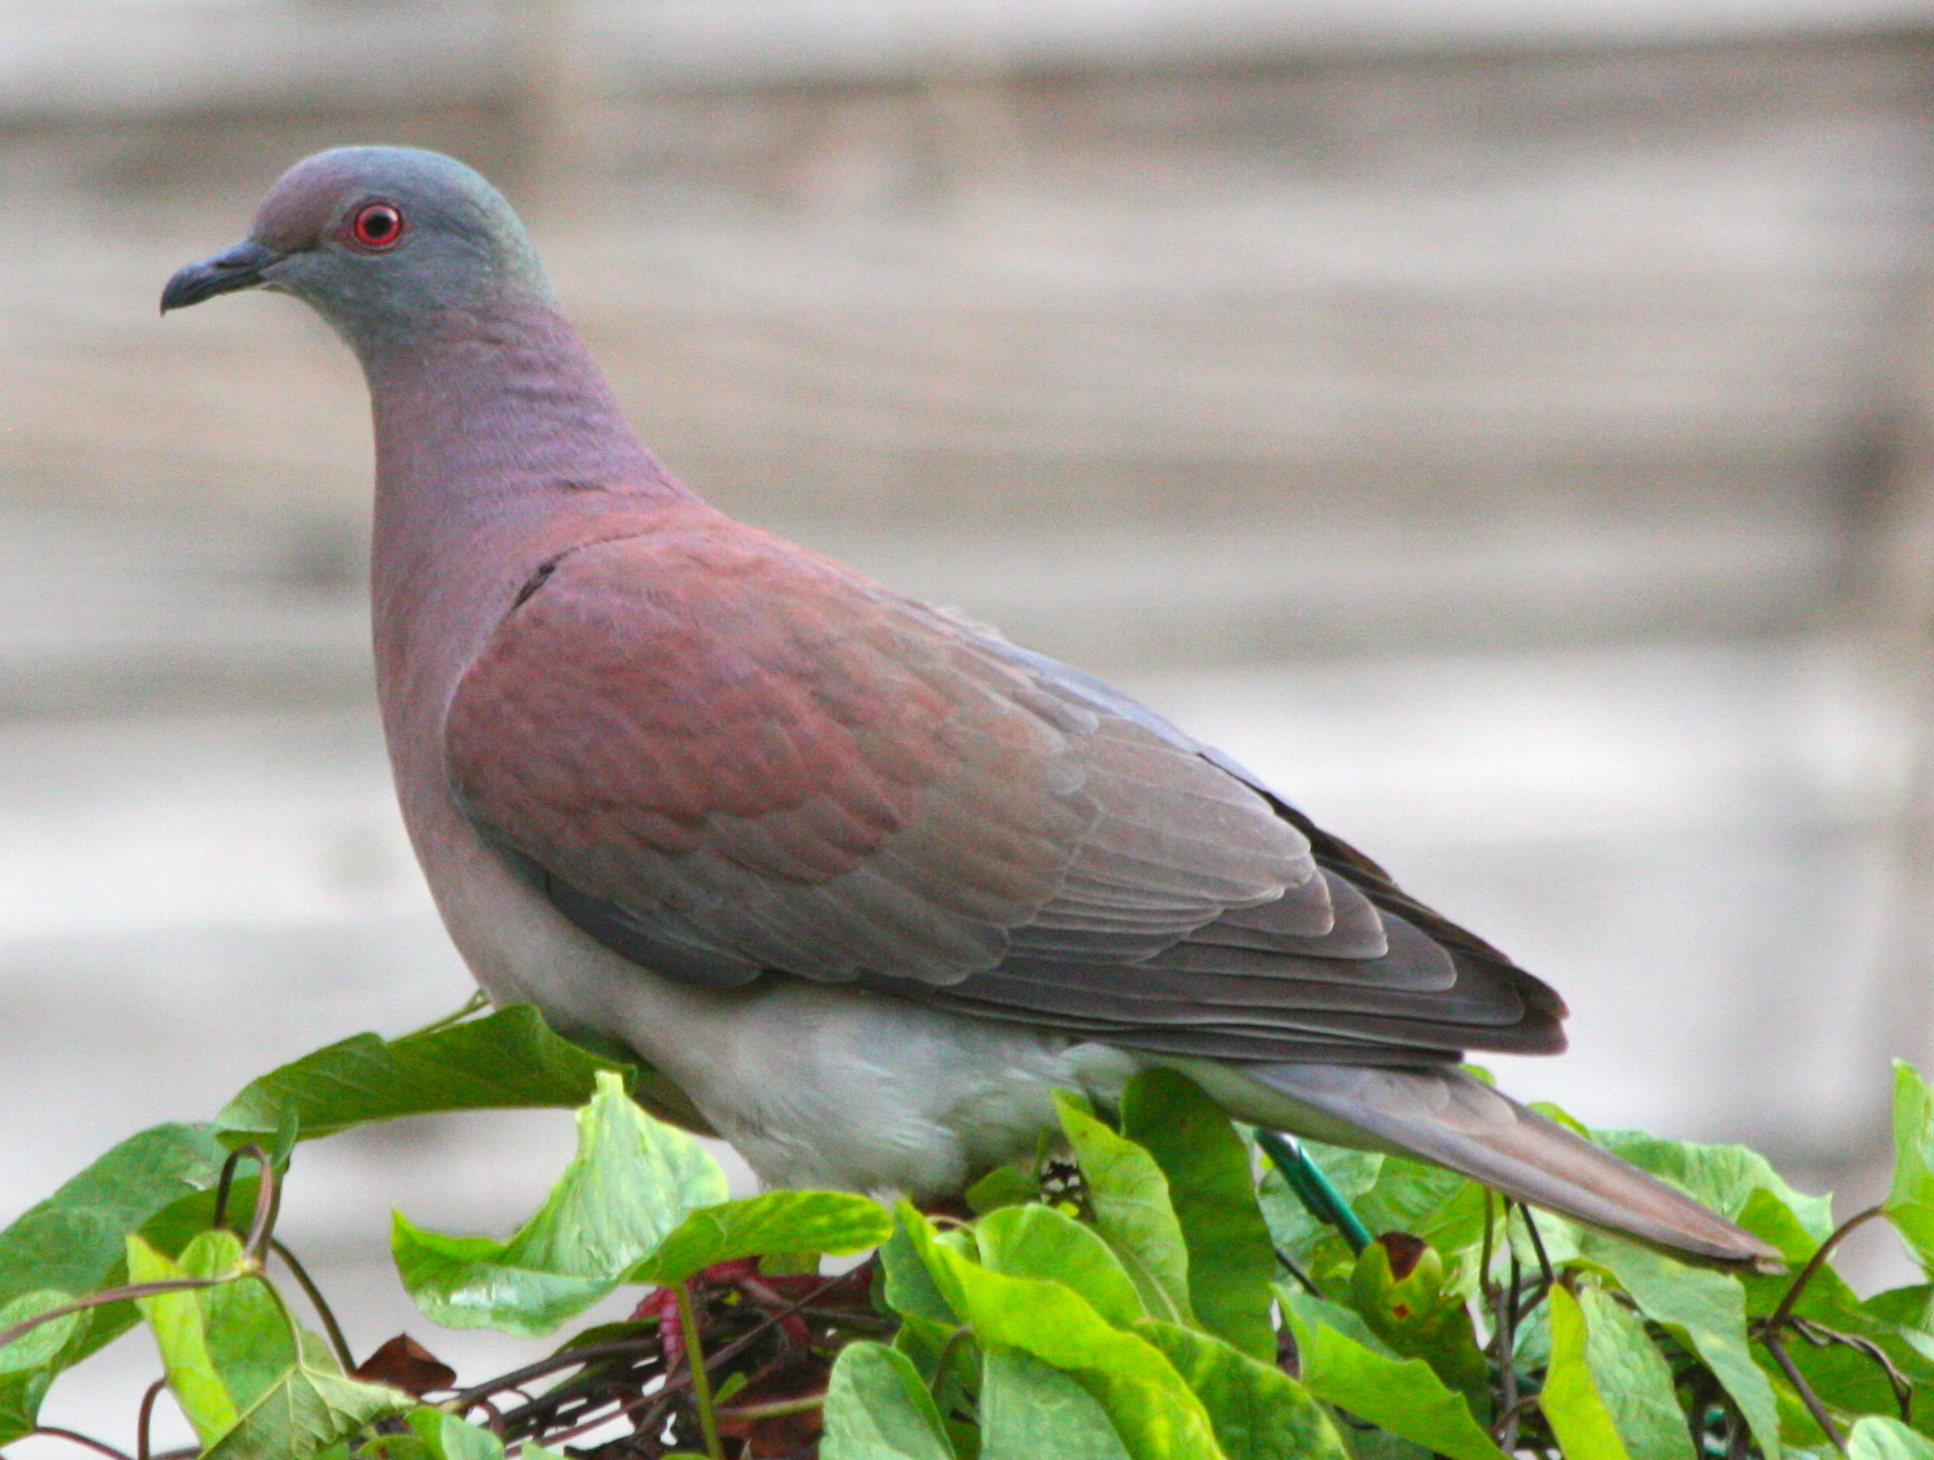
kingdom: Animalia
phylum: Chordata
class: Aves
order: Columbiformes
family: Columbidae
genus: Patagioenas
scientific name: Patagioenas cayennensis
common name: Pale-vented pigeon
